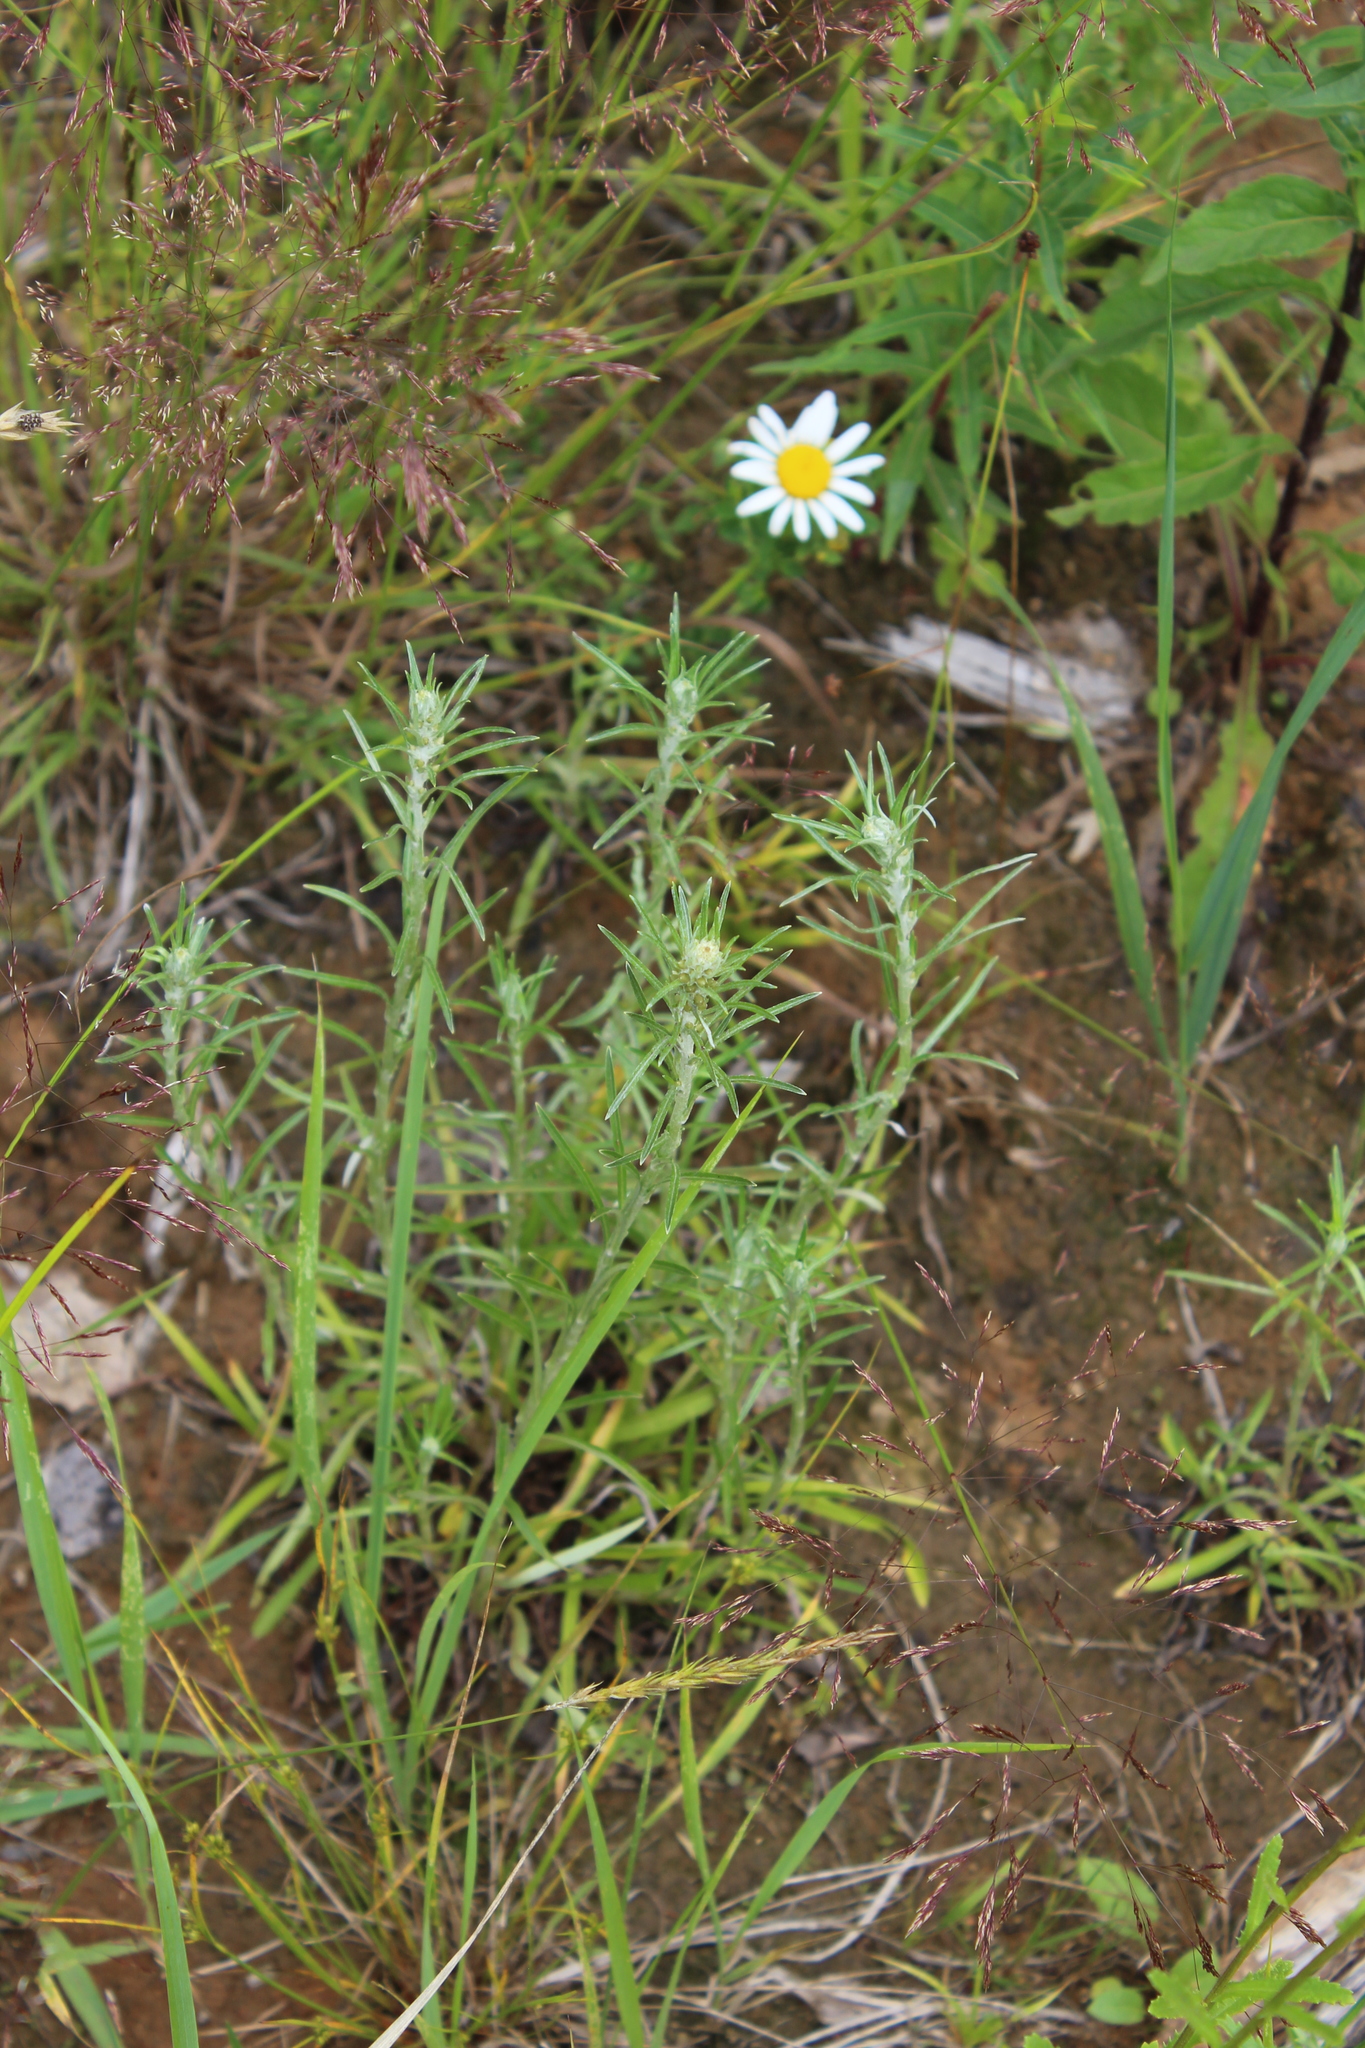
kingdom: Plantae
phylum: Tracheophyta
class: Magnoliopsida
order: Asterales
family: Asteraceae
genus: Omalotheca
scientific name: Omalotheca sylvatica
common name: Heath cudweed
